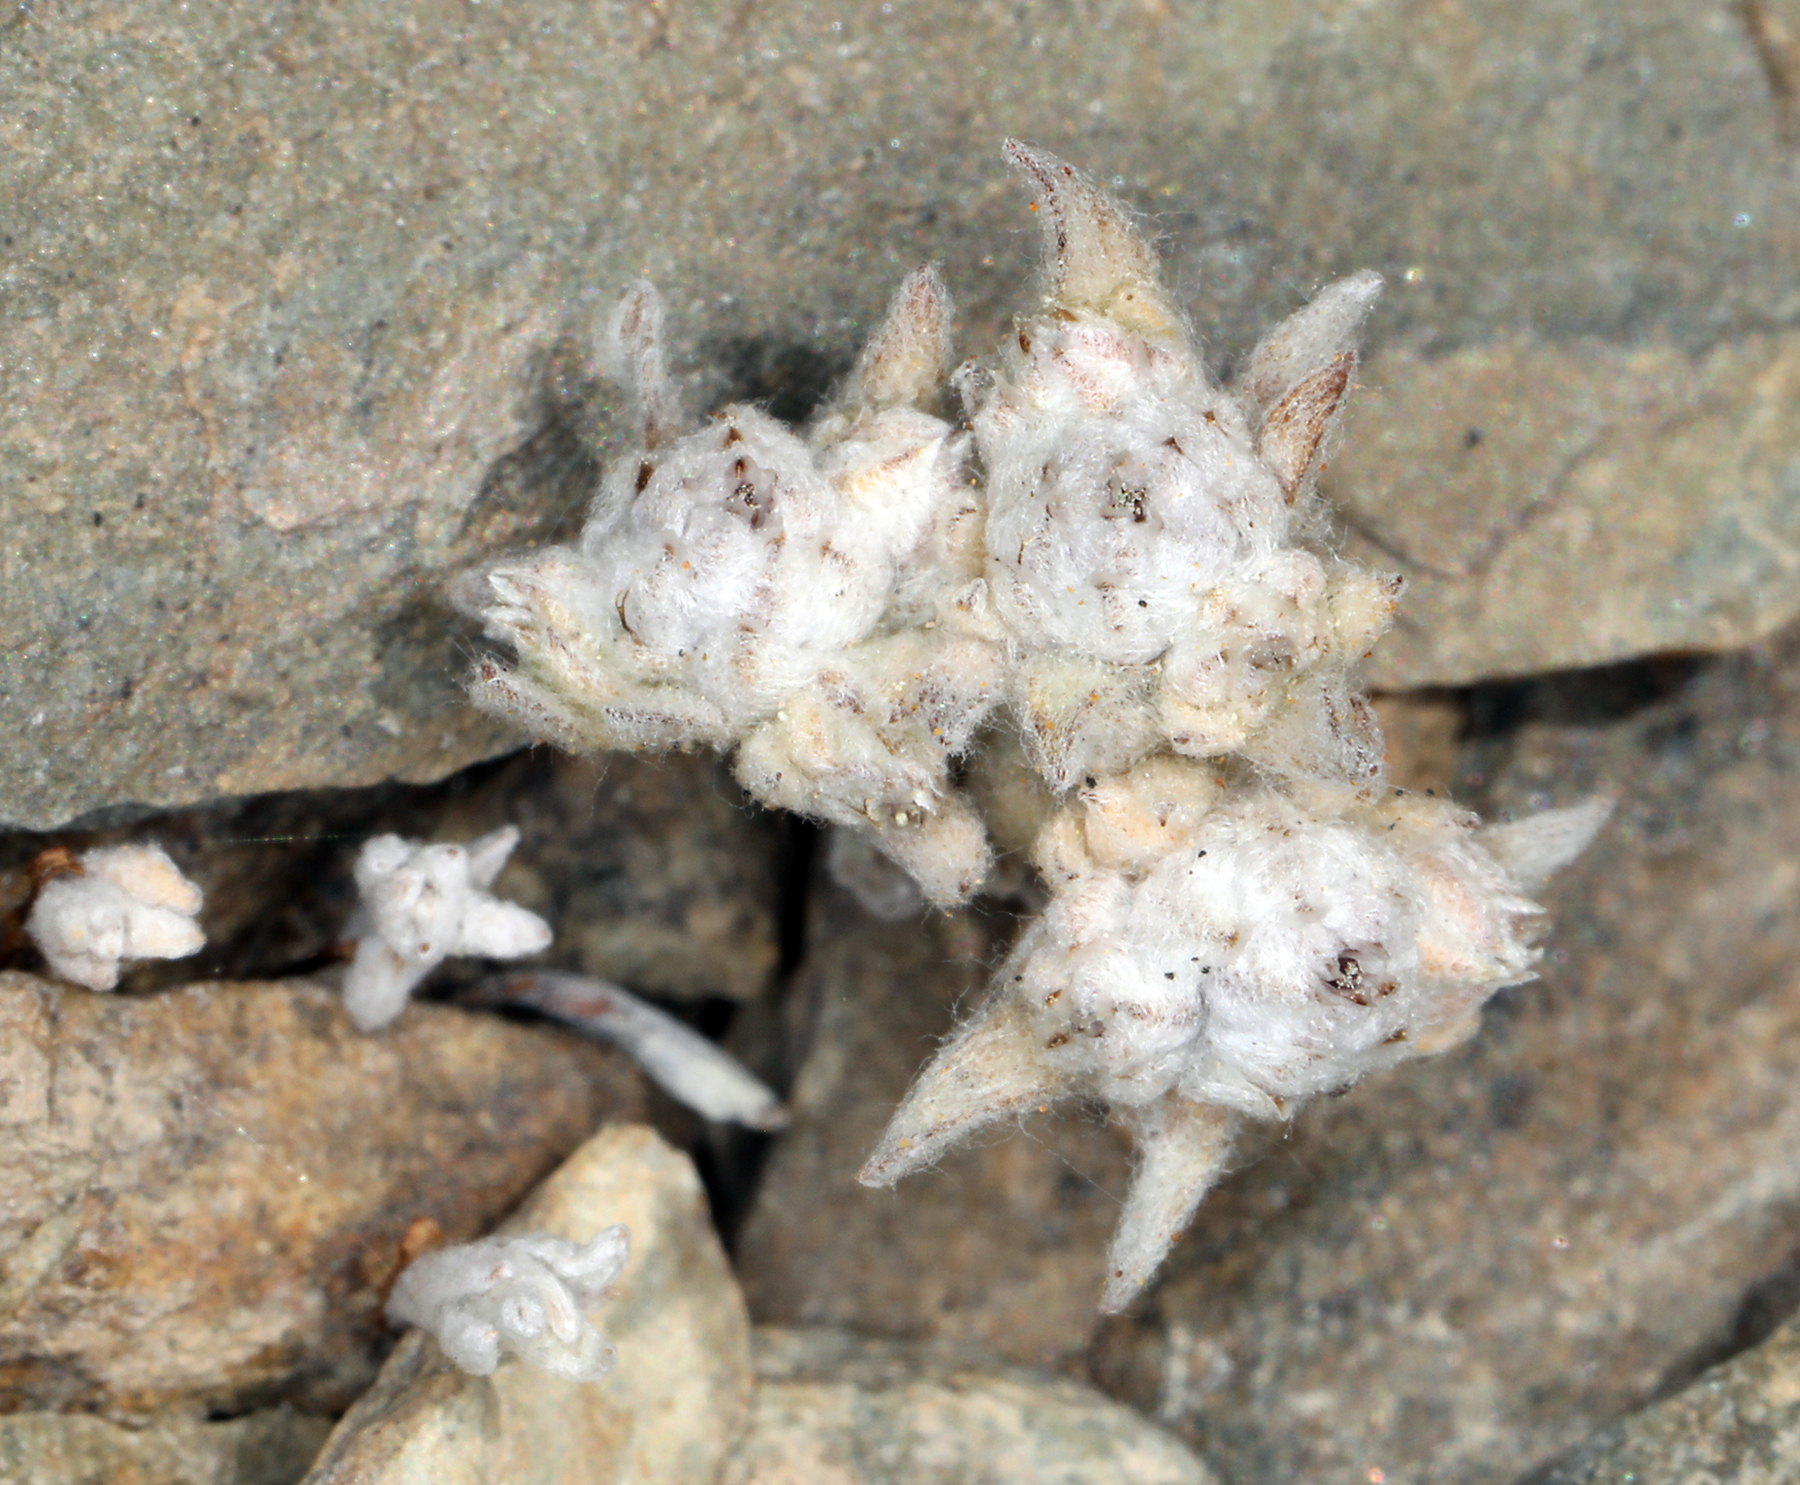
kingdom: Plantae
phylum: Tracheophyta
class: Magnoliopsida
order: Asterales
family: Asteraceae
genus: Stylocline
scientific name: Stylocline psilocarphoides
